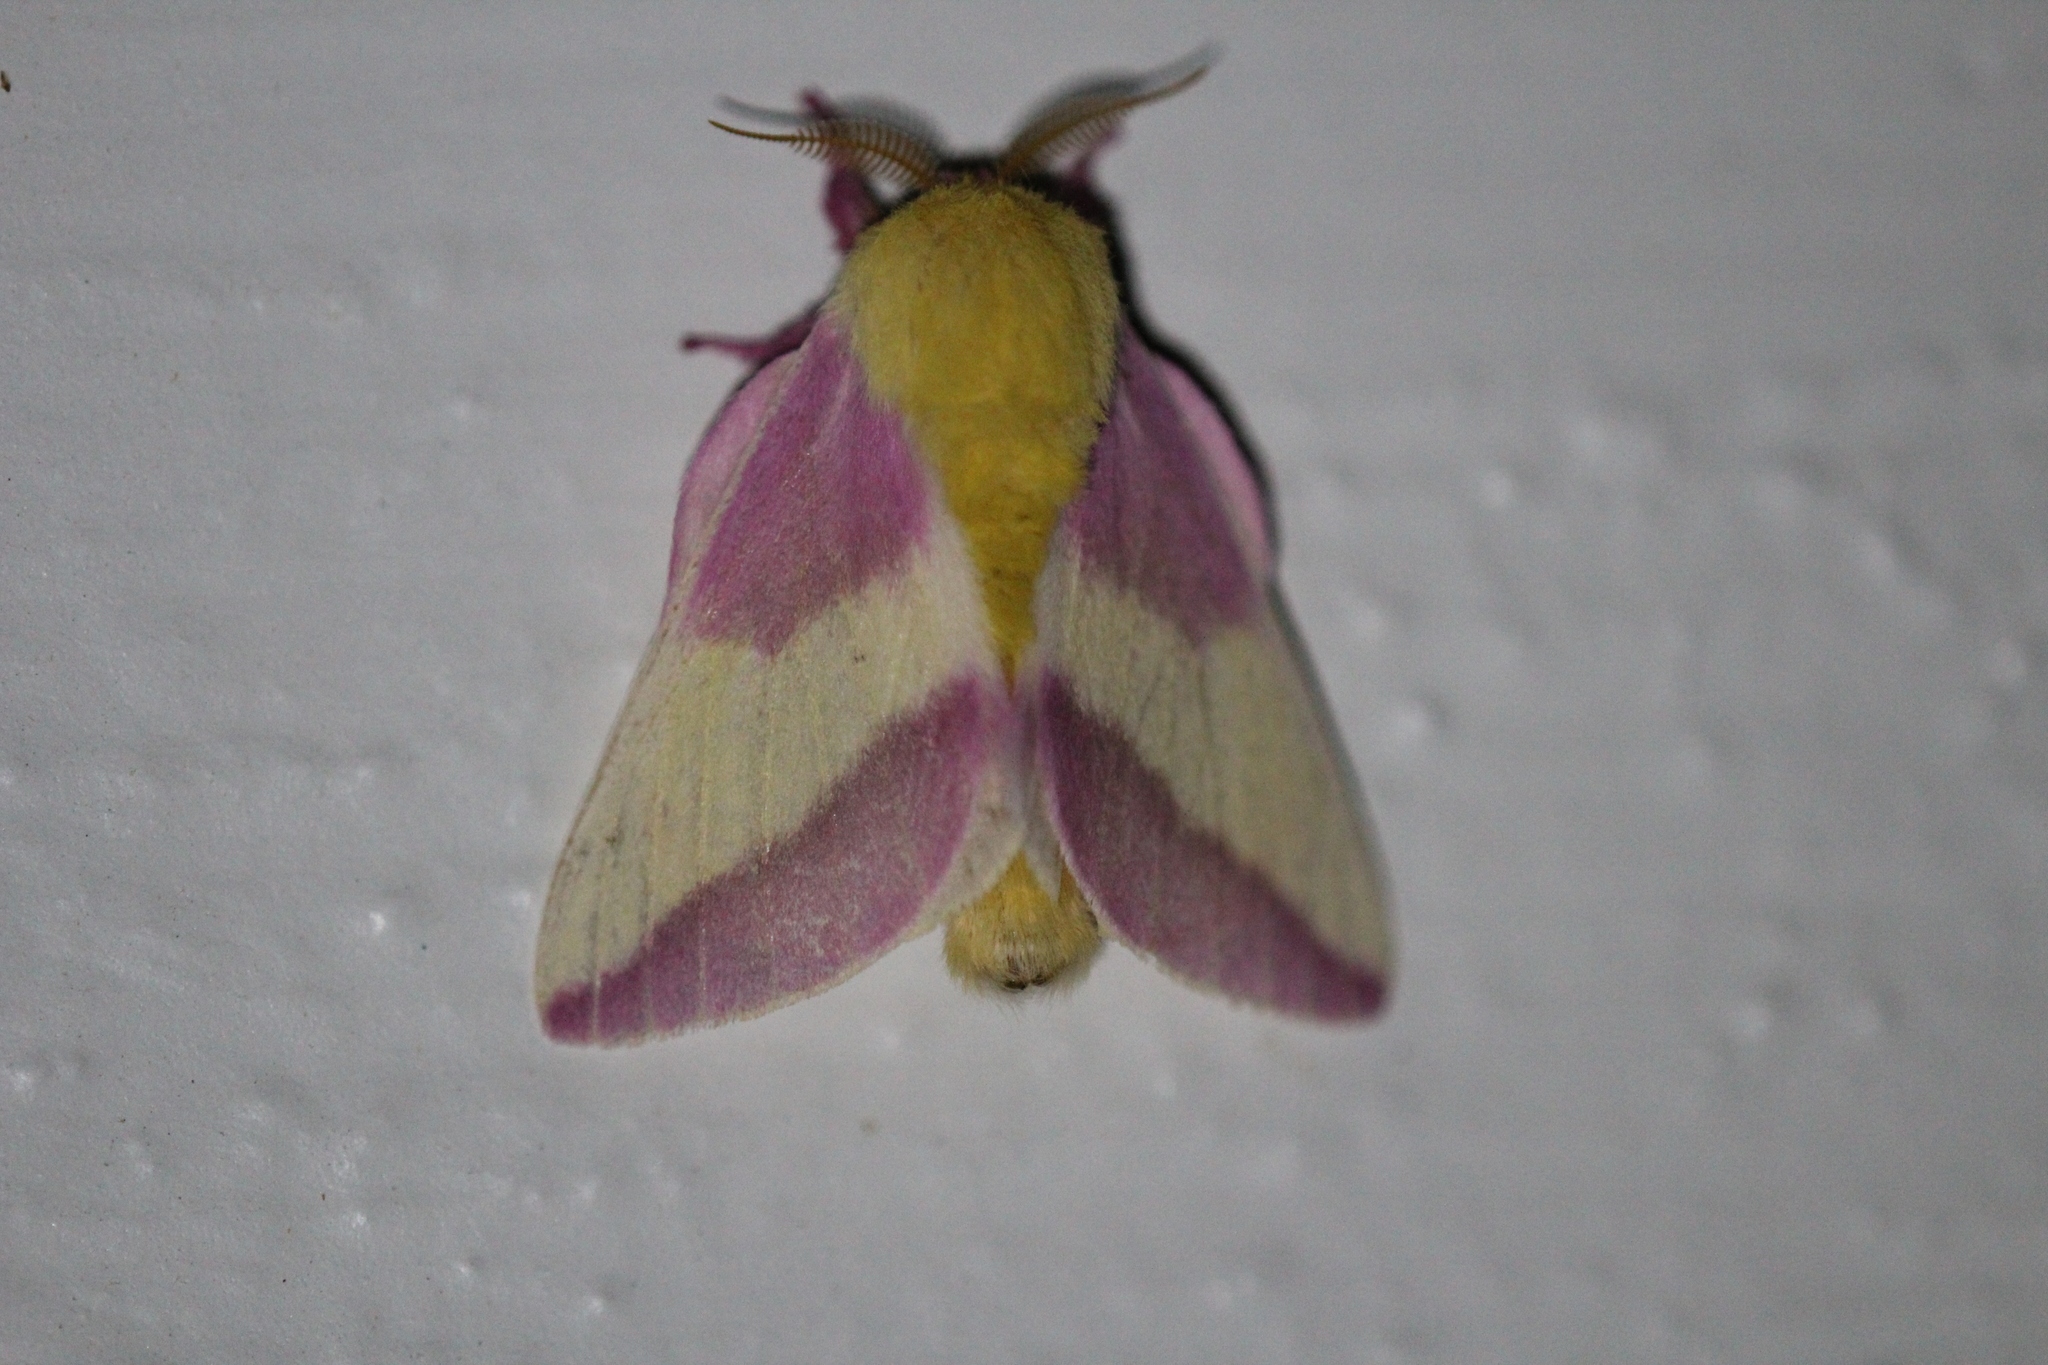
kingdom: Animalia
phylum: Arthropoda
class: Insecta
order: Lepidoptera
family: Saturniidae
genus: Dryocampa
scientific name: Dryocampa rubicunda
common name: Rosy maple moth
